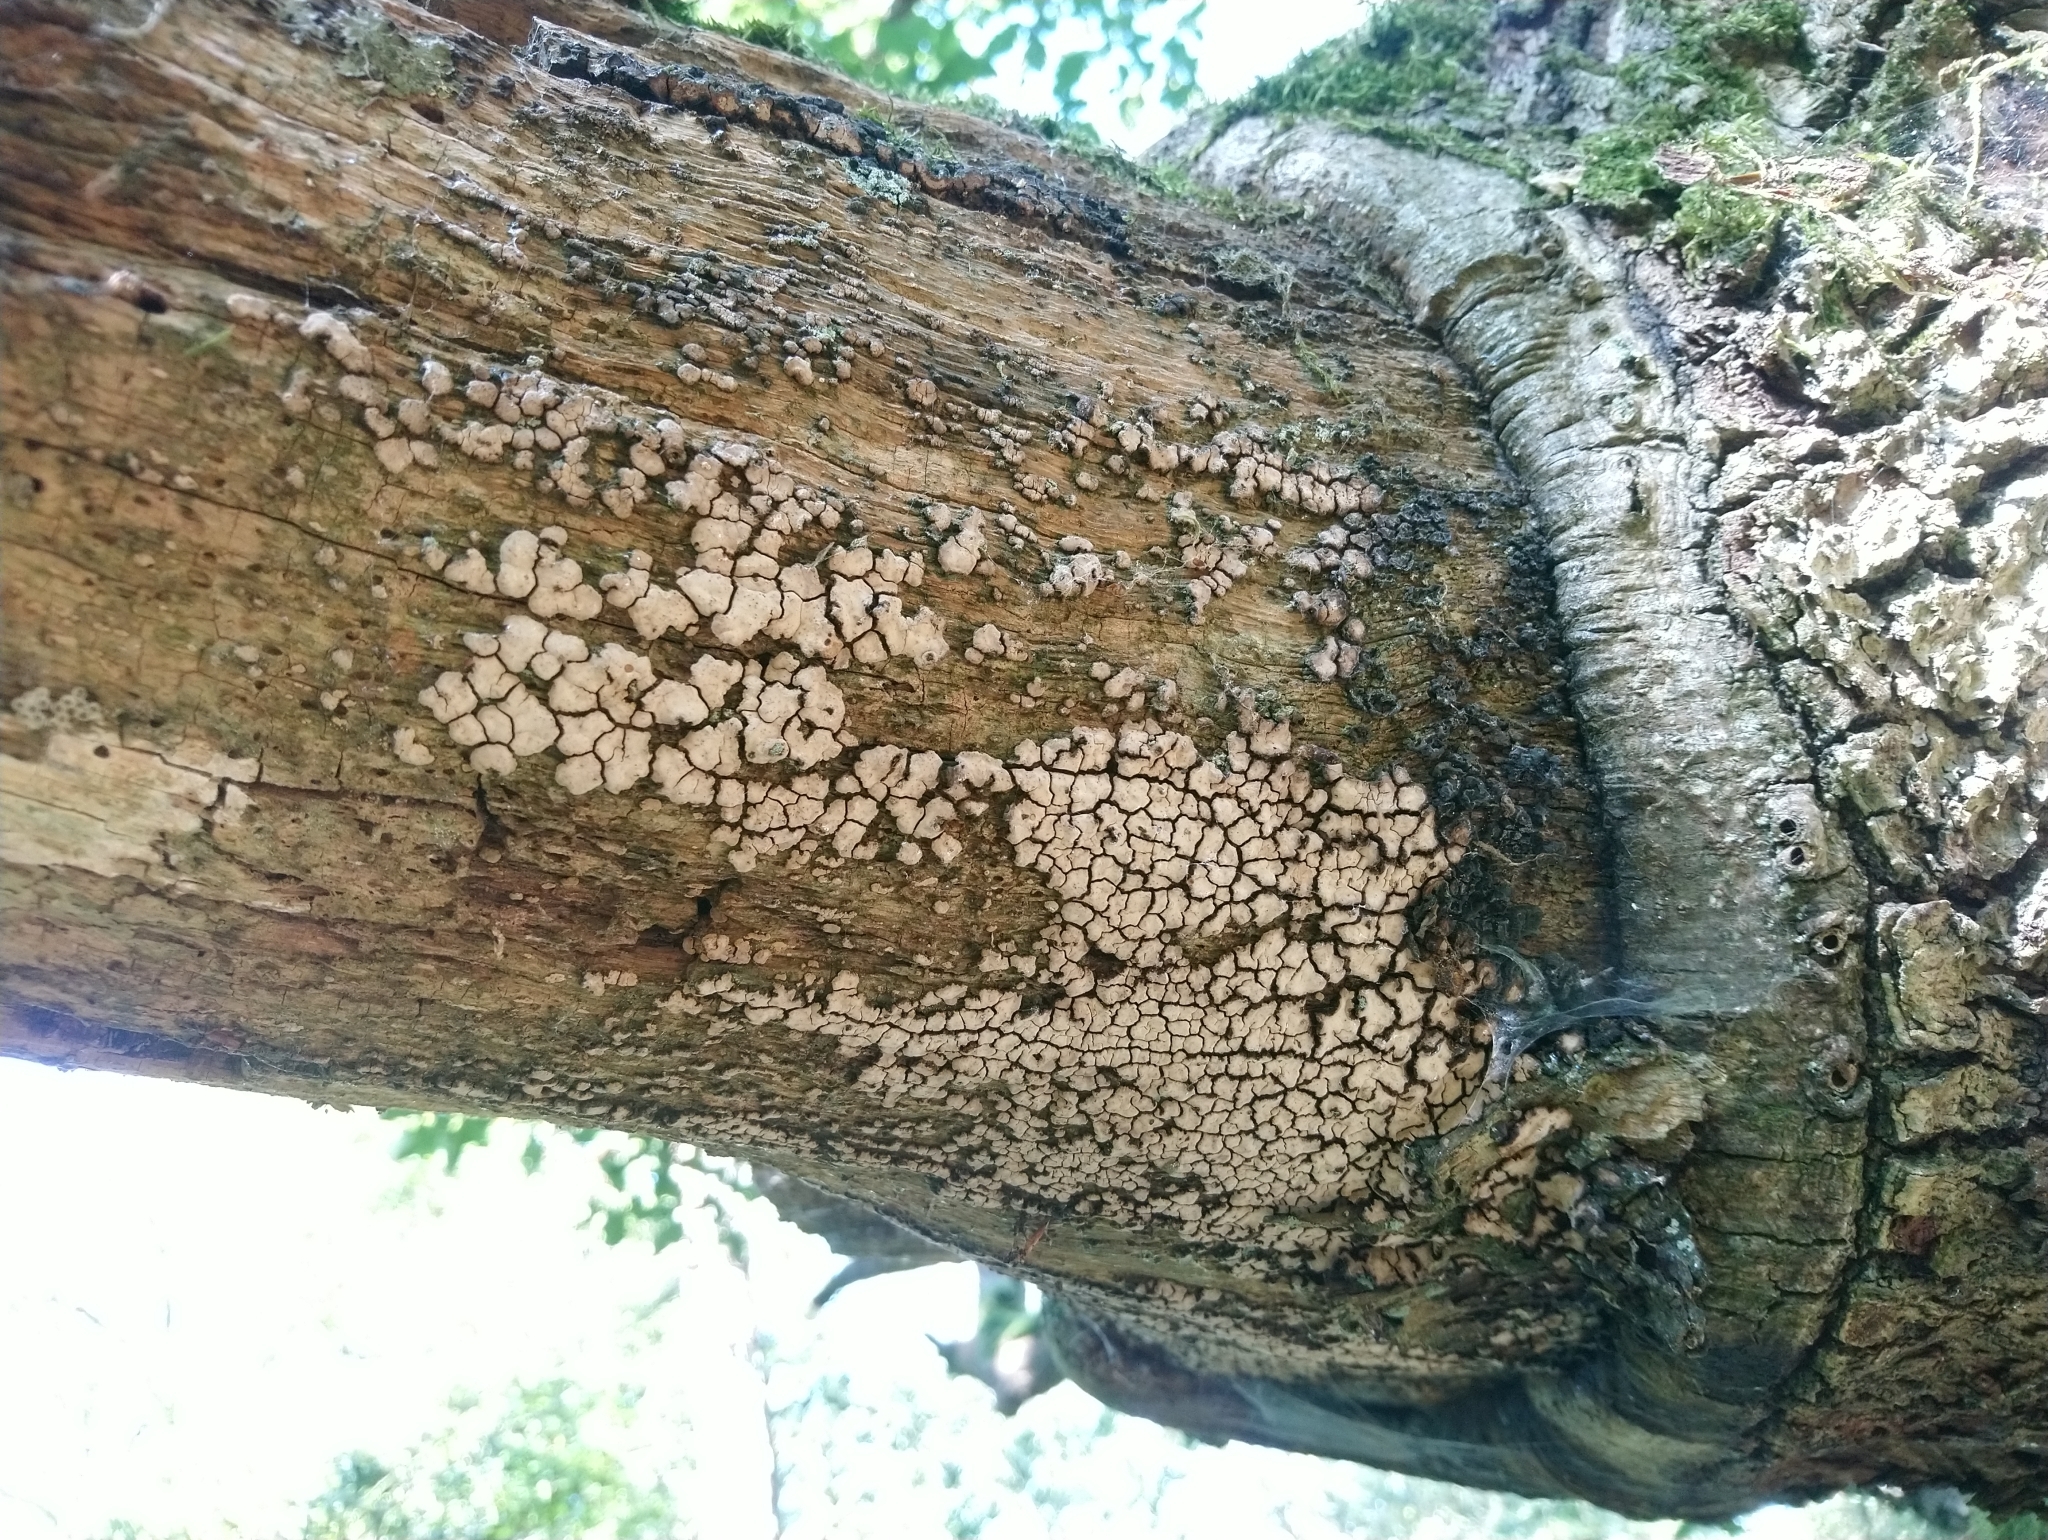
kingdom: Fungi
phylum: Basidiomycota
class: Agaricomycetes
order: Russulales
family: Stereaceae
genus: Xylobolus
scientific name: Xylobolus frustulatus
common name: Ceramic parchment
